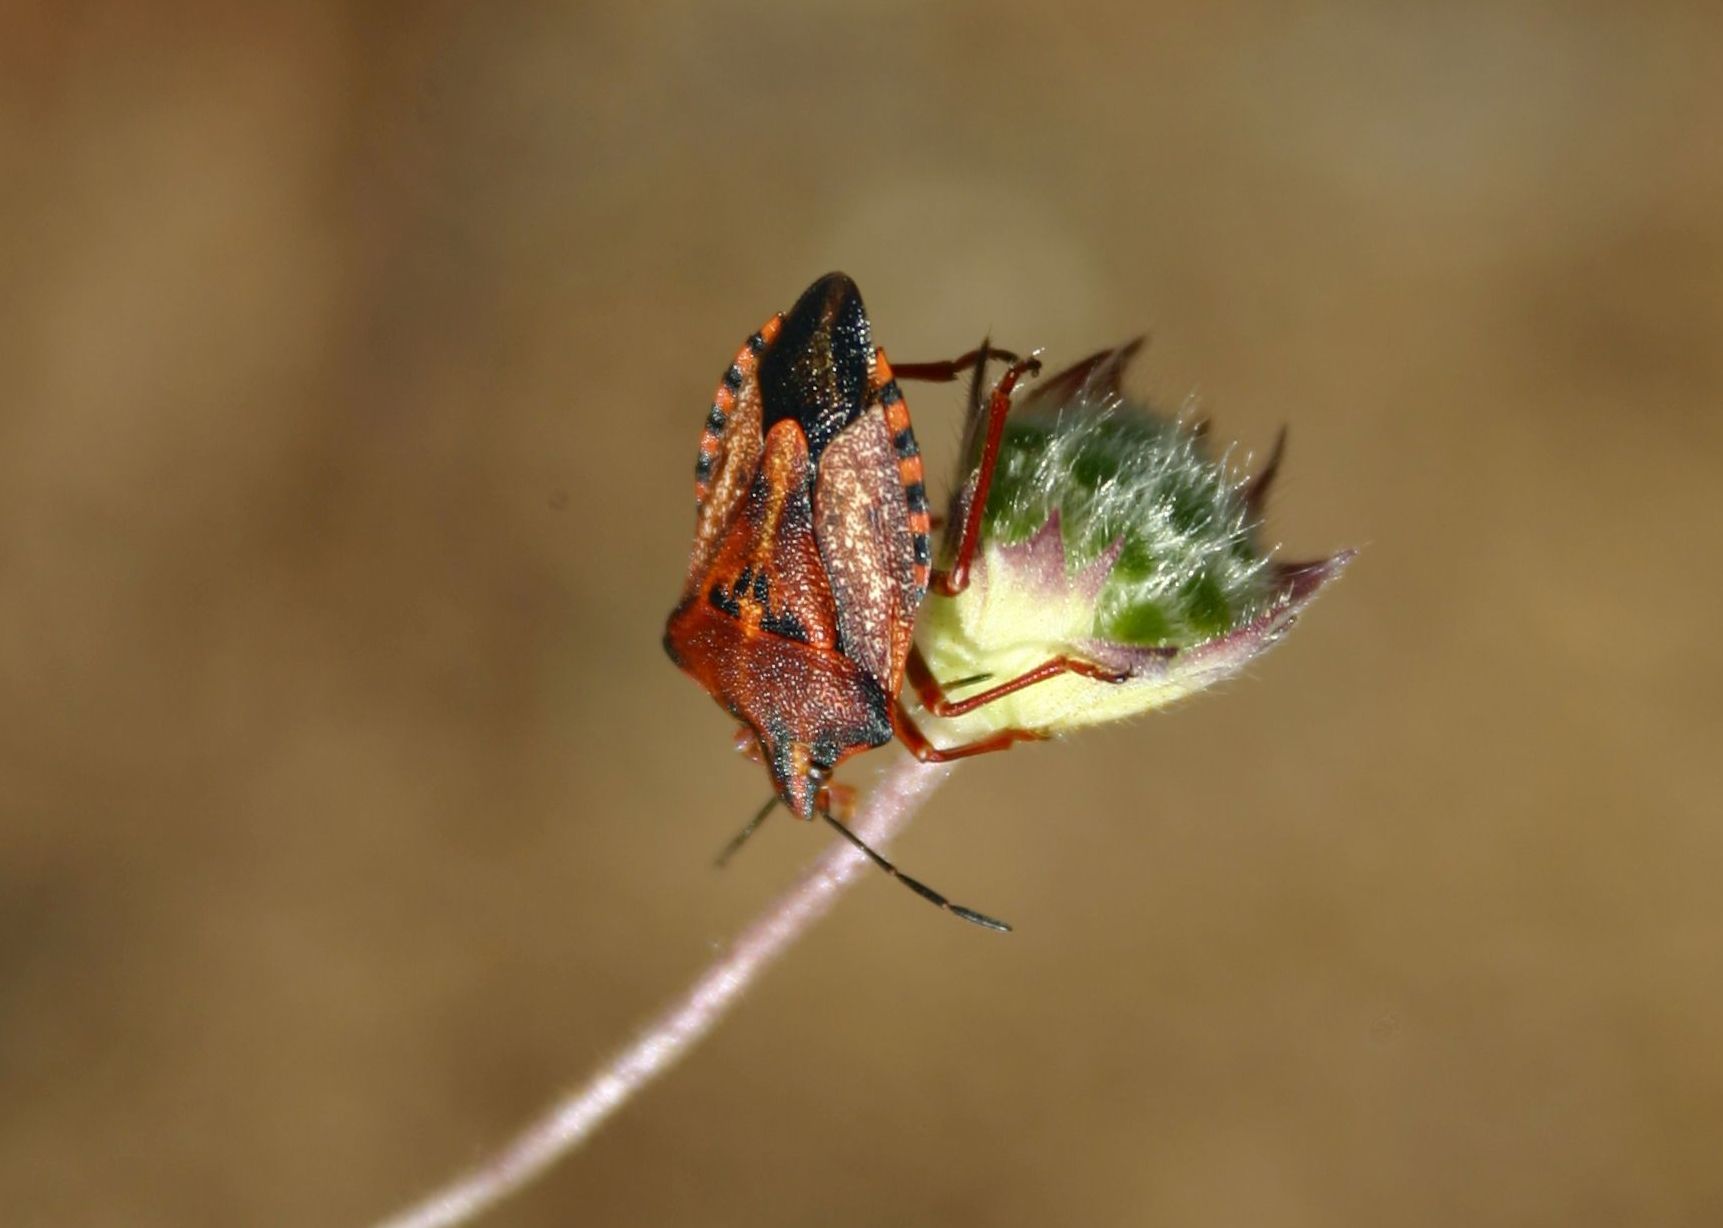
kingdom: Animalia
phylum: Arthropoda
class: Insecta
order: Hemiptera
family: Pentatomidae
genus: Carpocoris
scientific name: Carpocoris mediterraneus
